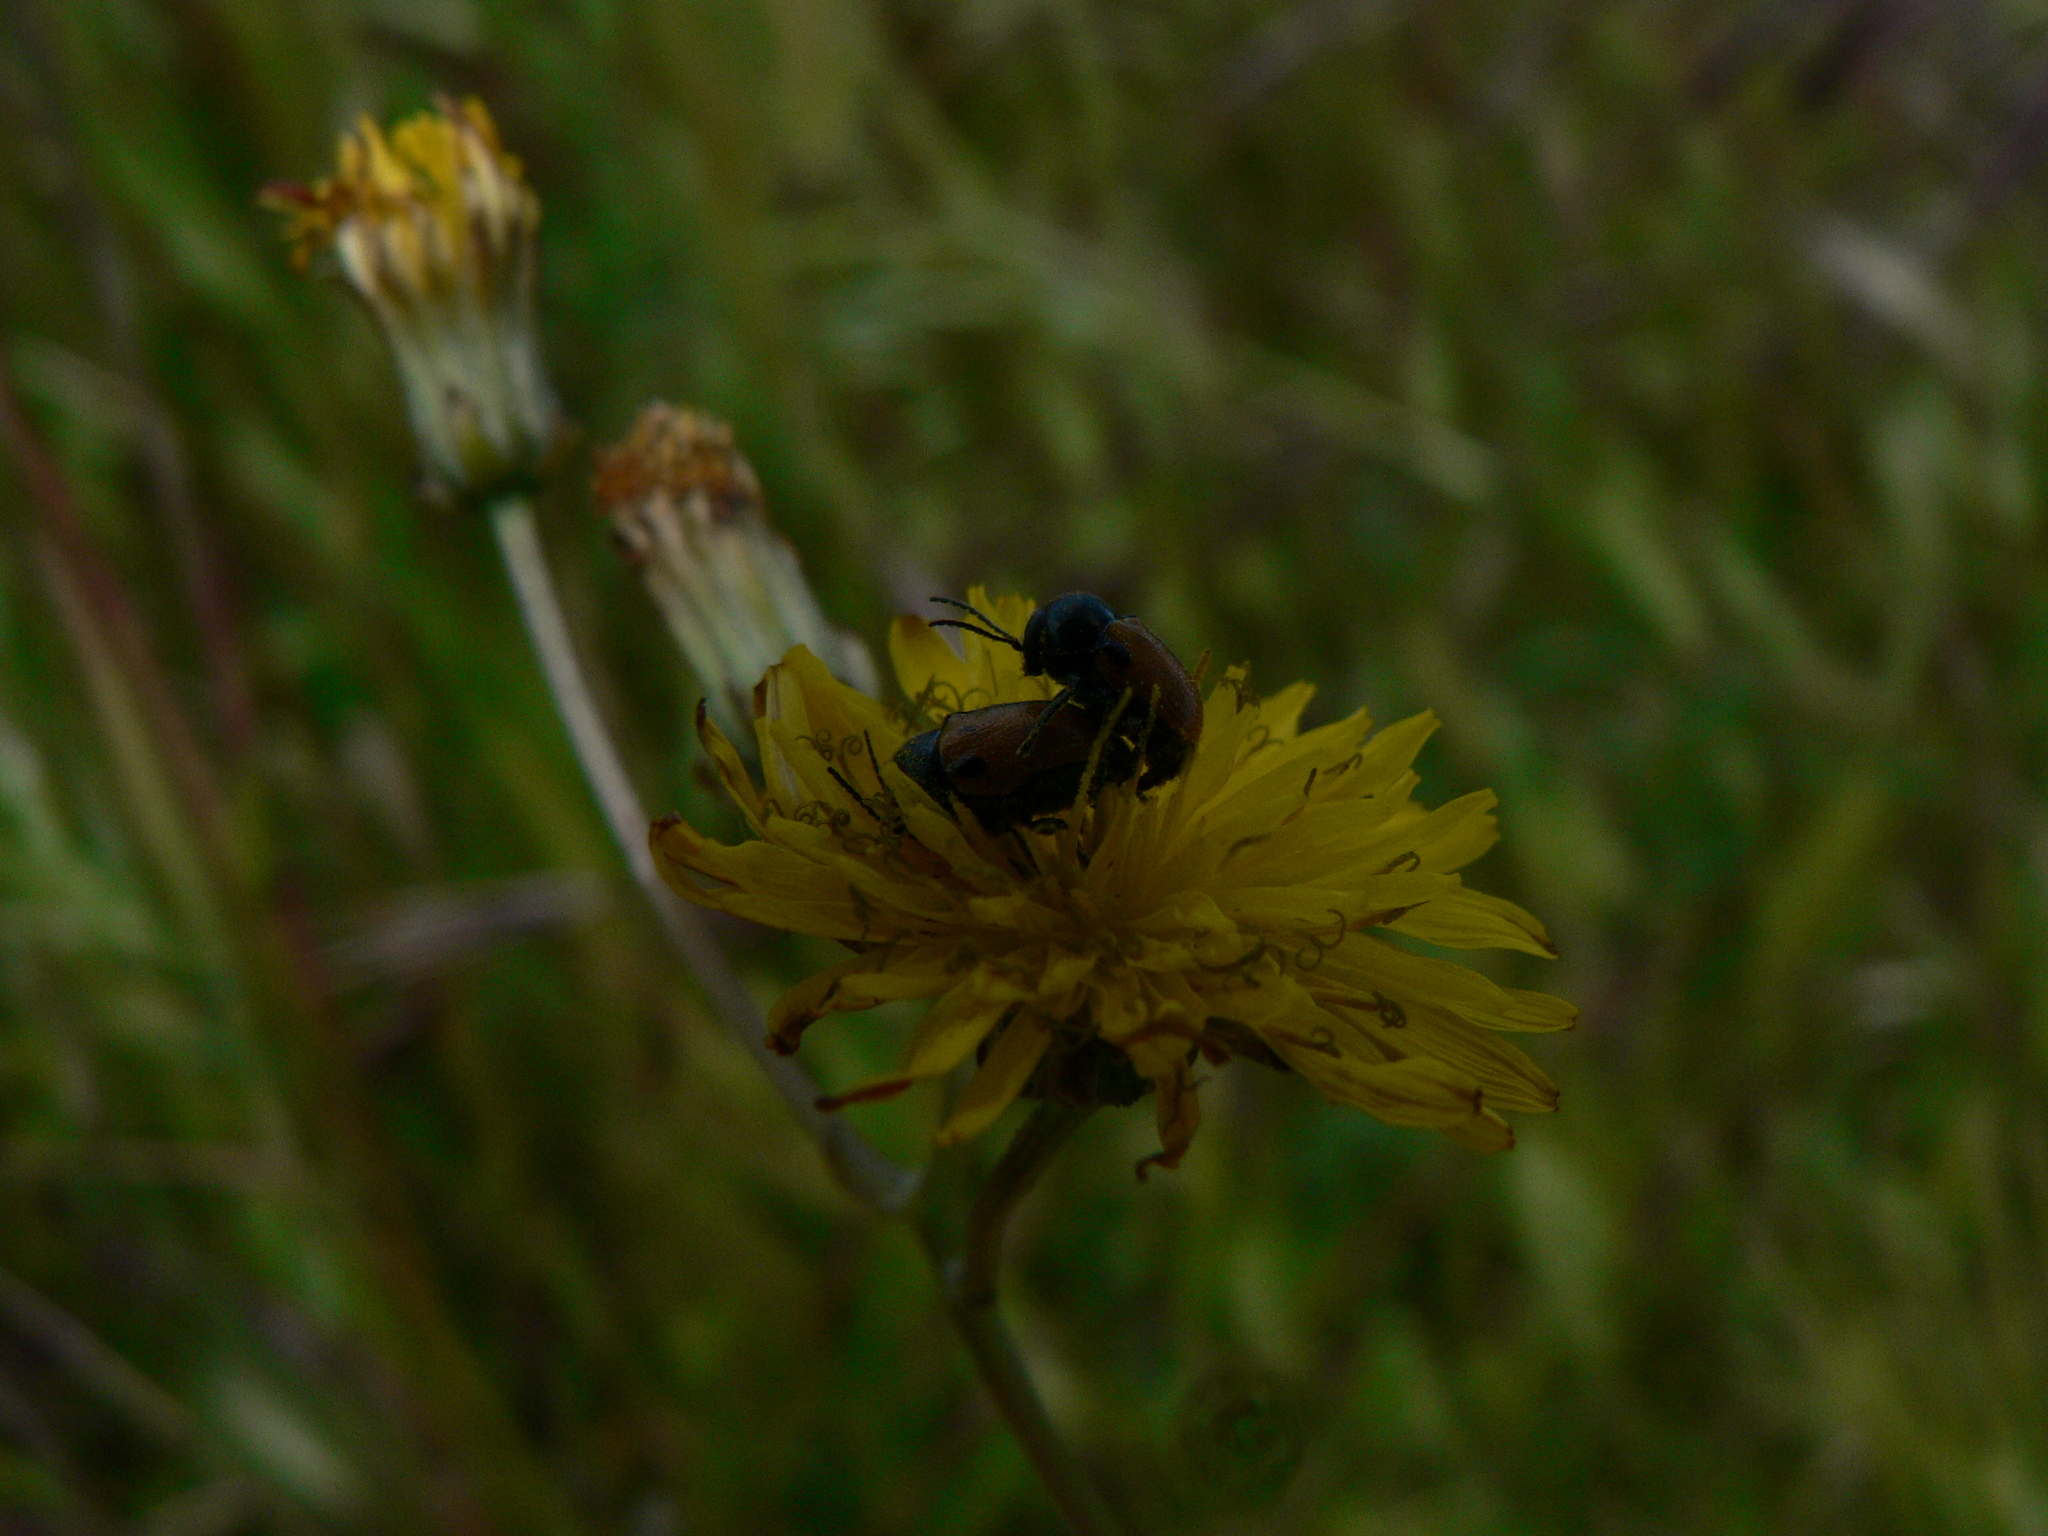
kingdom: Animalia
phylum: Arthropoda
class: Insecta
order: Coleoptera
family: Chrysomelidae
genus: Cryptocephalus
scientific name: Cryptocephalus rugicollis
